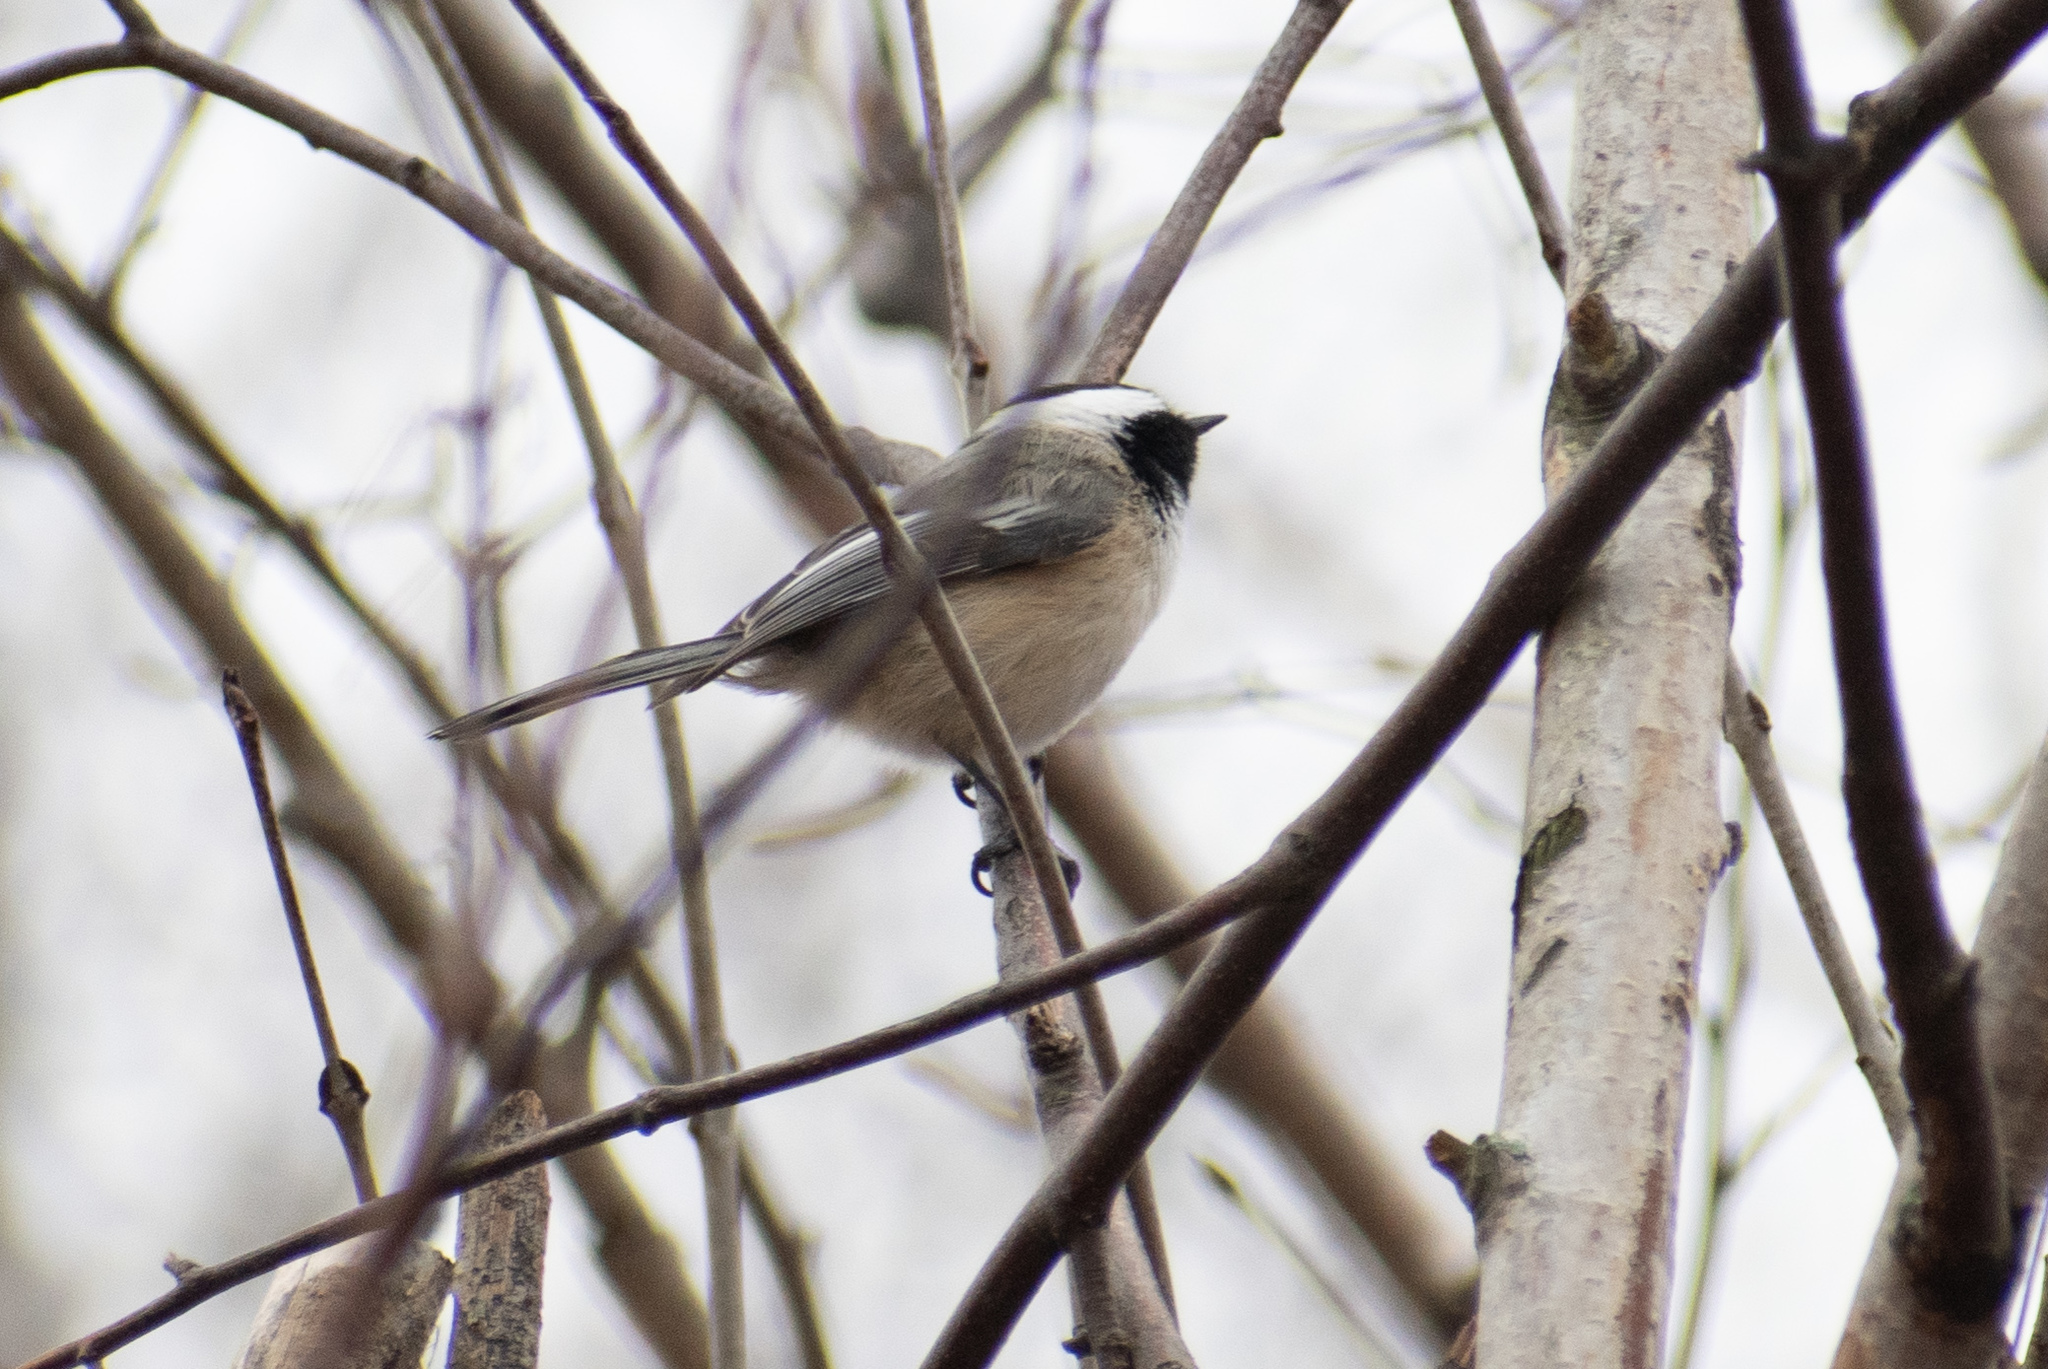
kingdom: Animalia
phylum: Chordata
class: Aves
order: Passeriformes
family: Paridae
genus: Poecile
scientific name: Poecile atricapillus
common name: Black-capped chickadee
